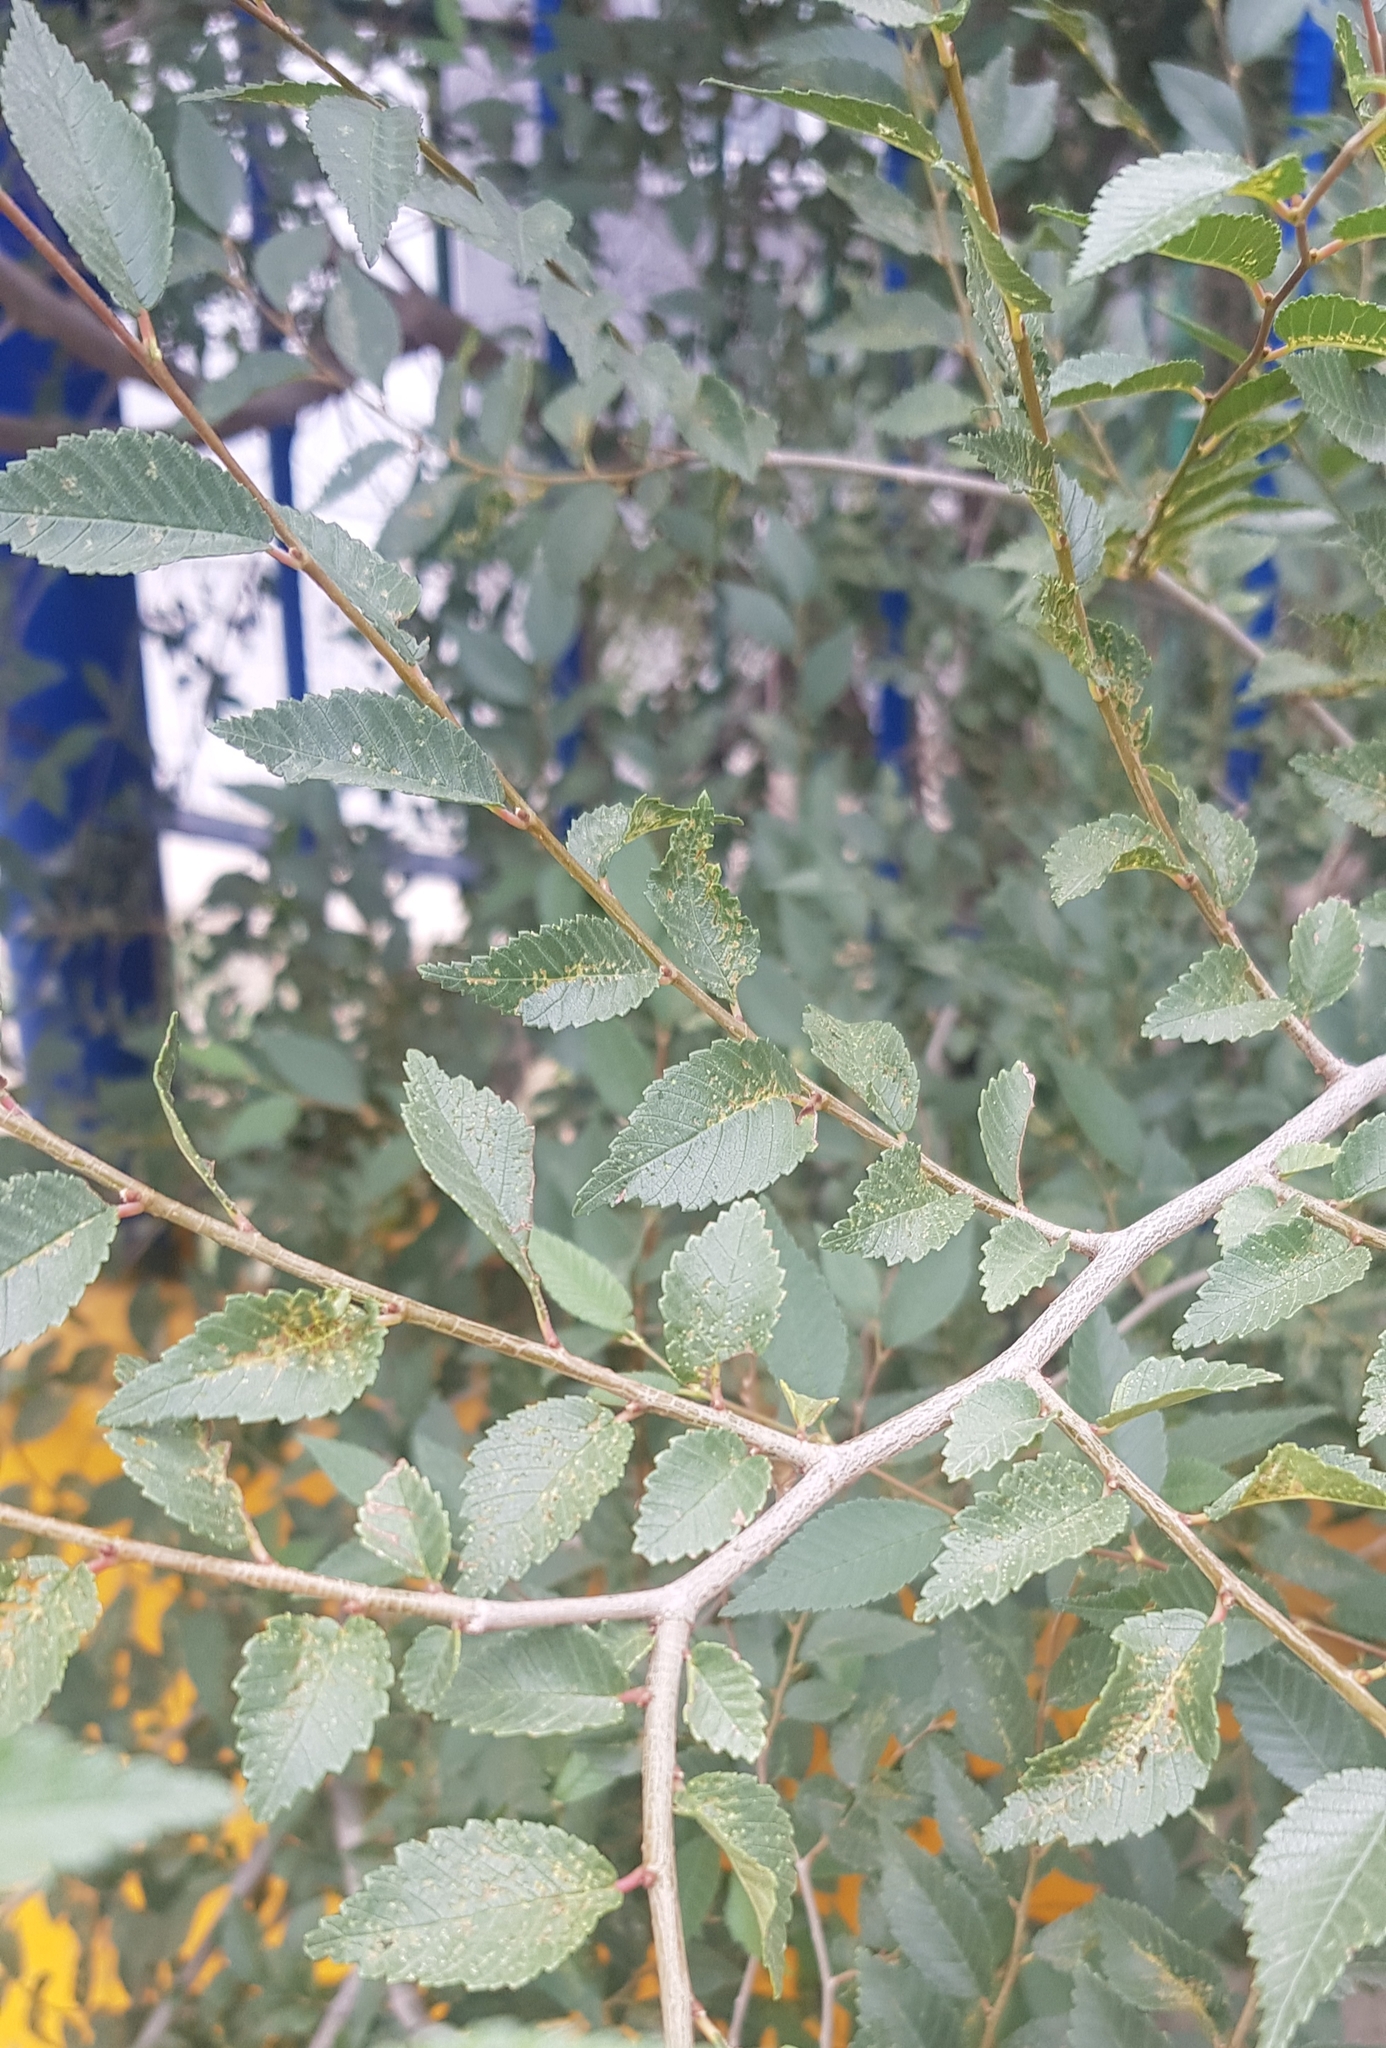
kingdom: Plantae
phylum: Tracheophyta
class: Magnoliopsida
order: Rosales
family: Ulmaceae
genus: Ulmus
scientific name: Ulmus pumila
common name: Siberian elm
